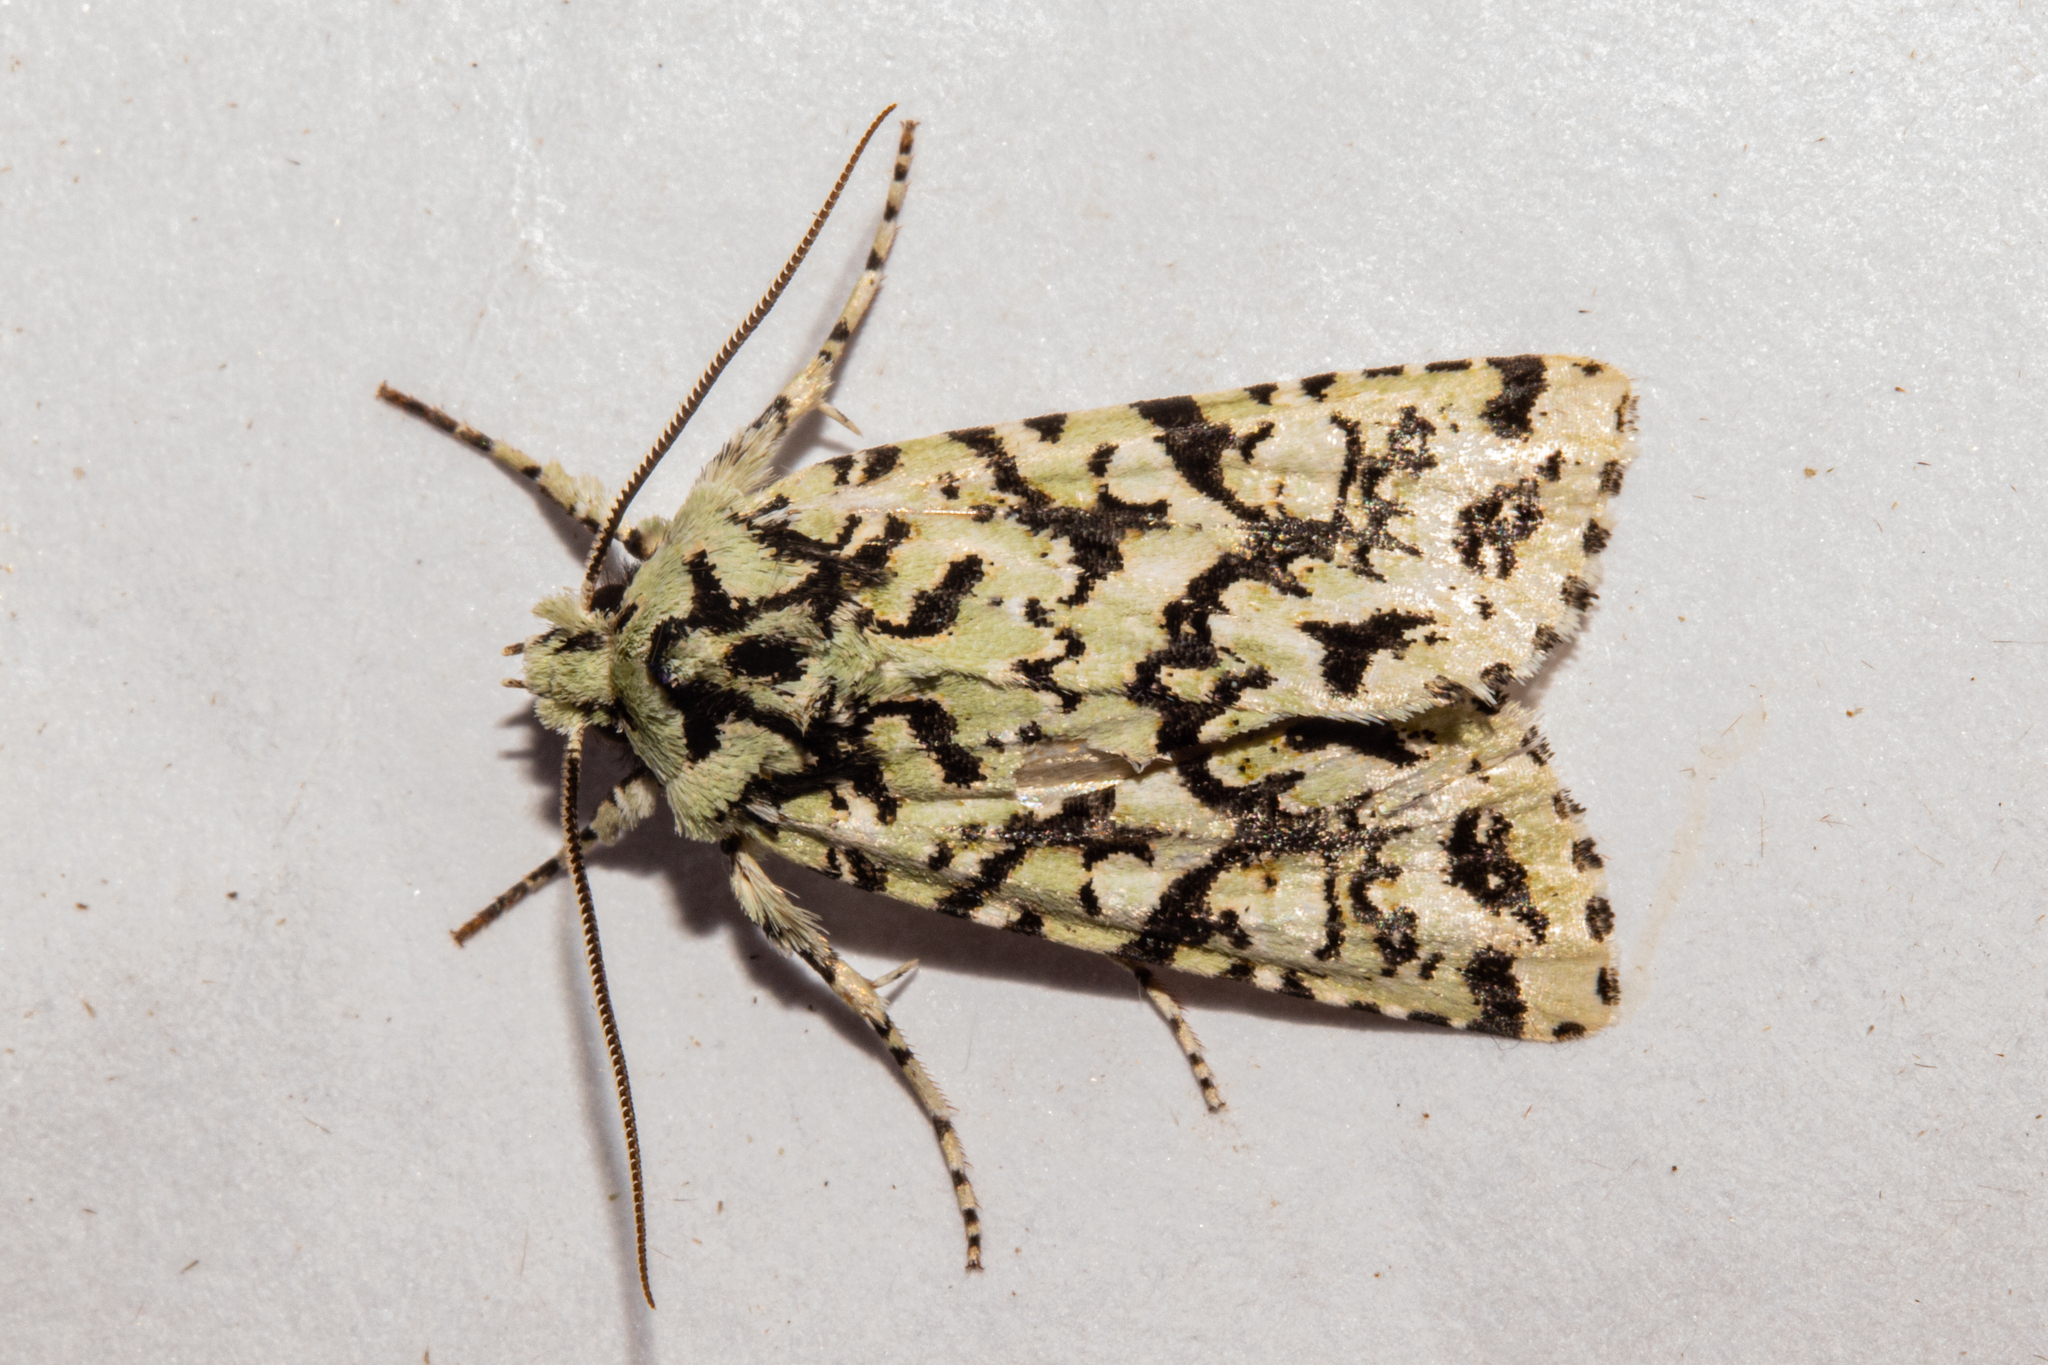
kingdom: Animalia
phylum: Arthropoda
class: Insecta
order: Lepidoptera
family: Noctuidae
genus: Meterana
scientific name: Meterana
